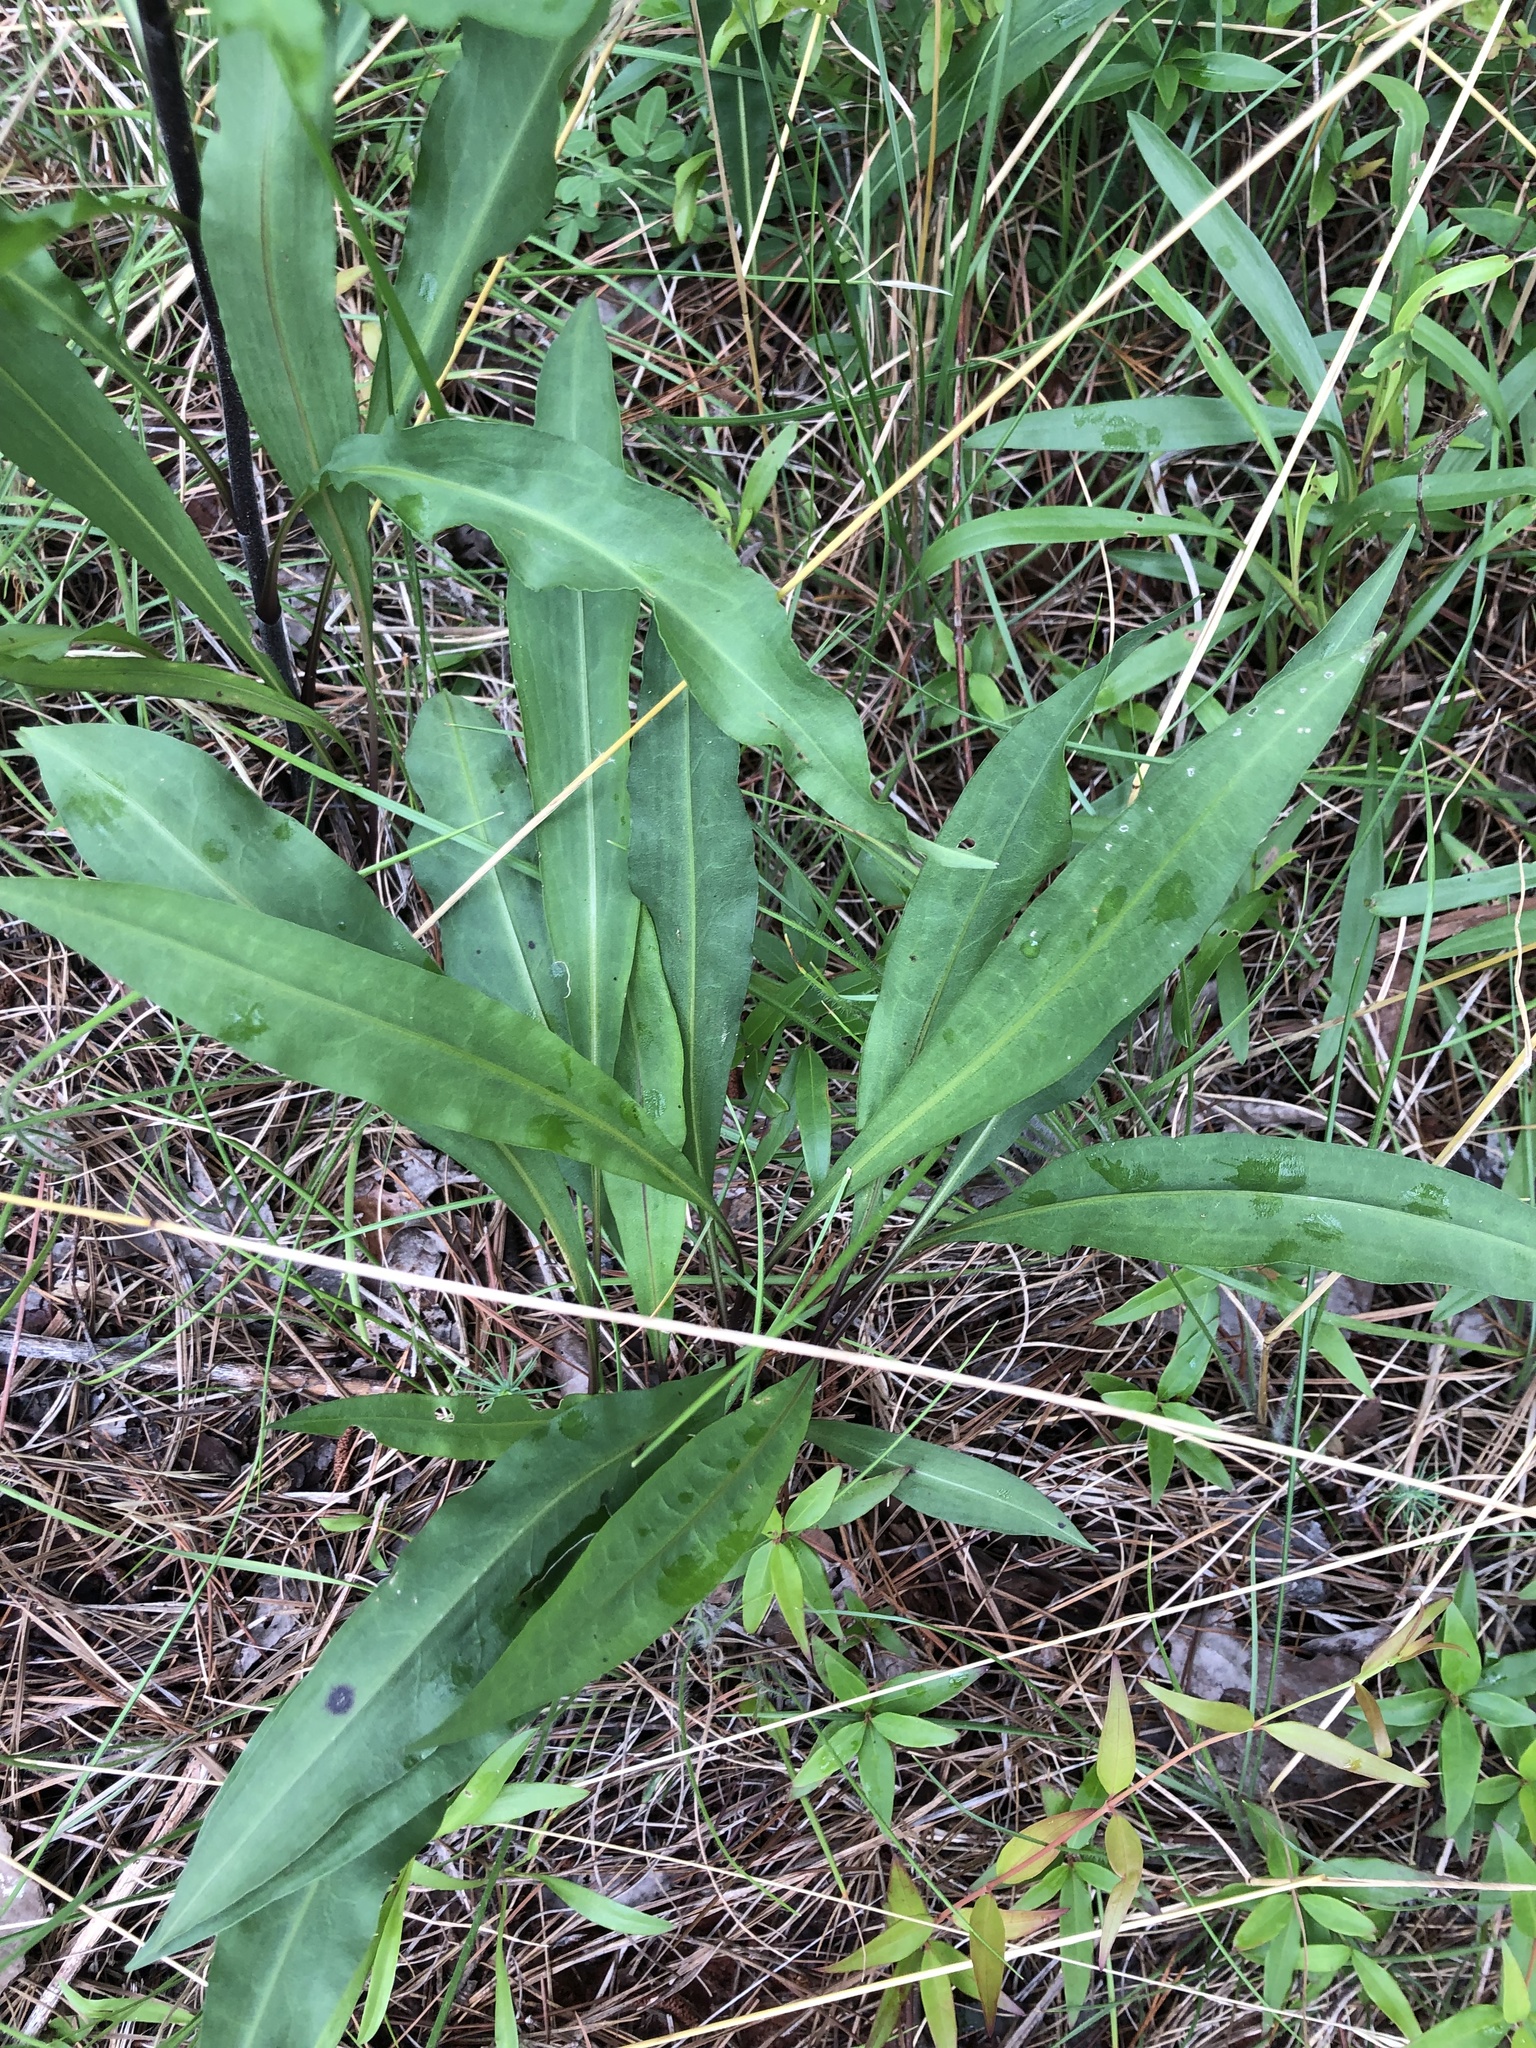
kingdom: Plantae
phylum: Tracheophyta
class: Magnoliopsida
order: Asterales
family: Asteraceae
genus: Liatris
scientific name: Liatris squarrulosa
